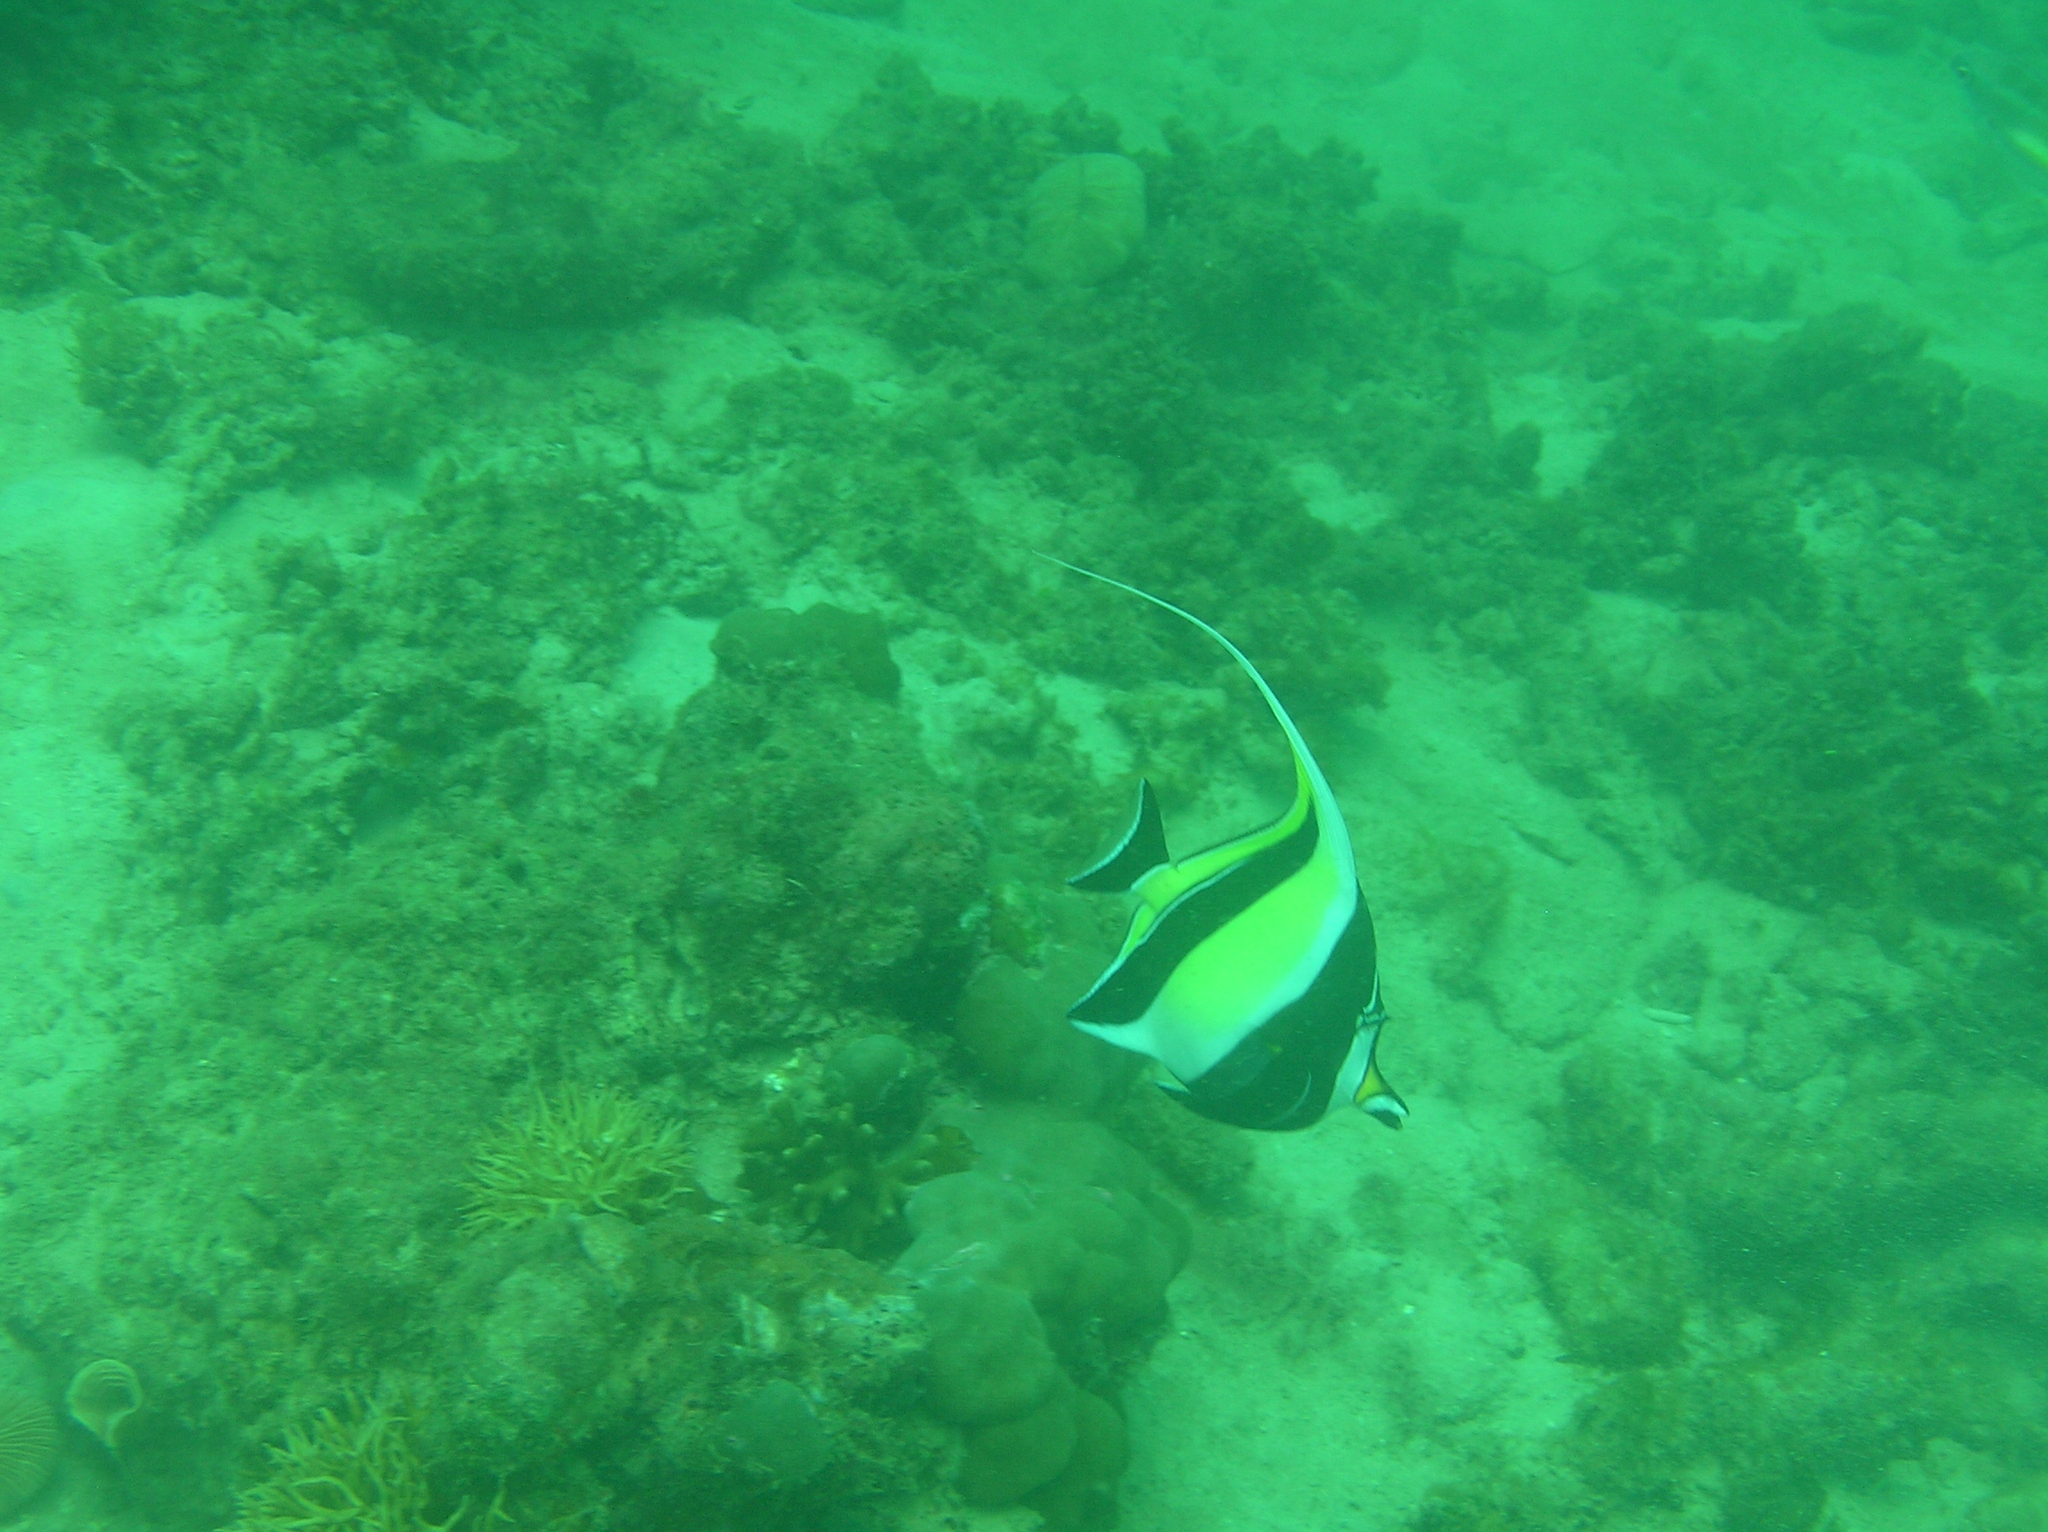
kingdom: Animalia
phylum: Chordata
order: Perciformes
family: Zanclidae
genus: Zanclus
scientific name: Zanclus cornutus
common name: Moorish idol
